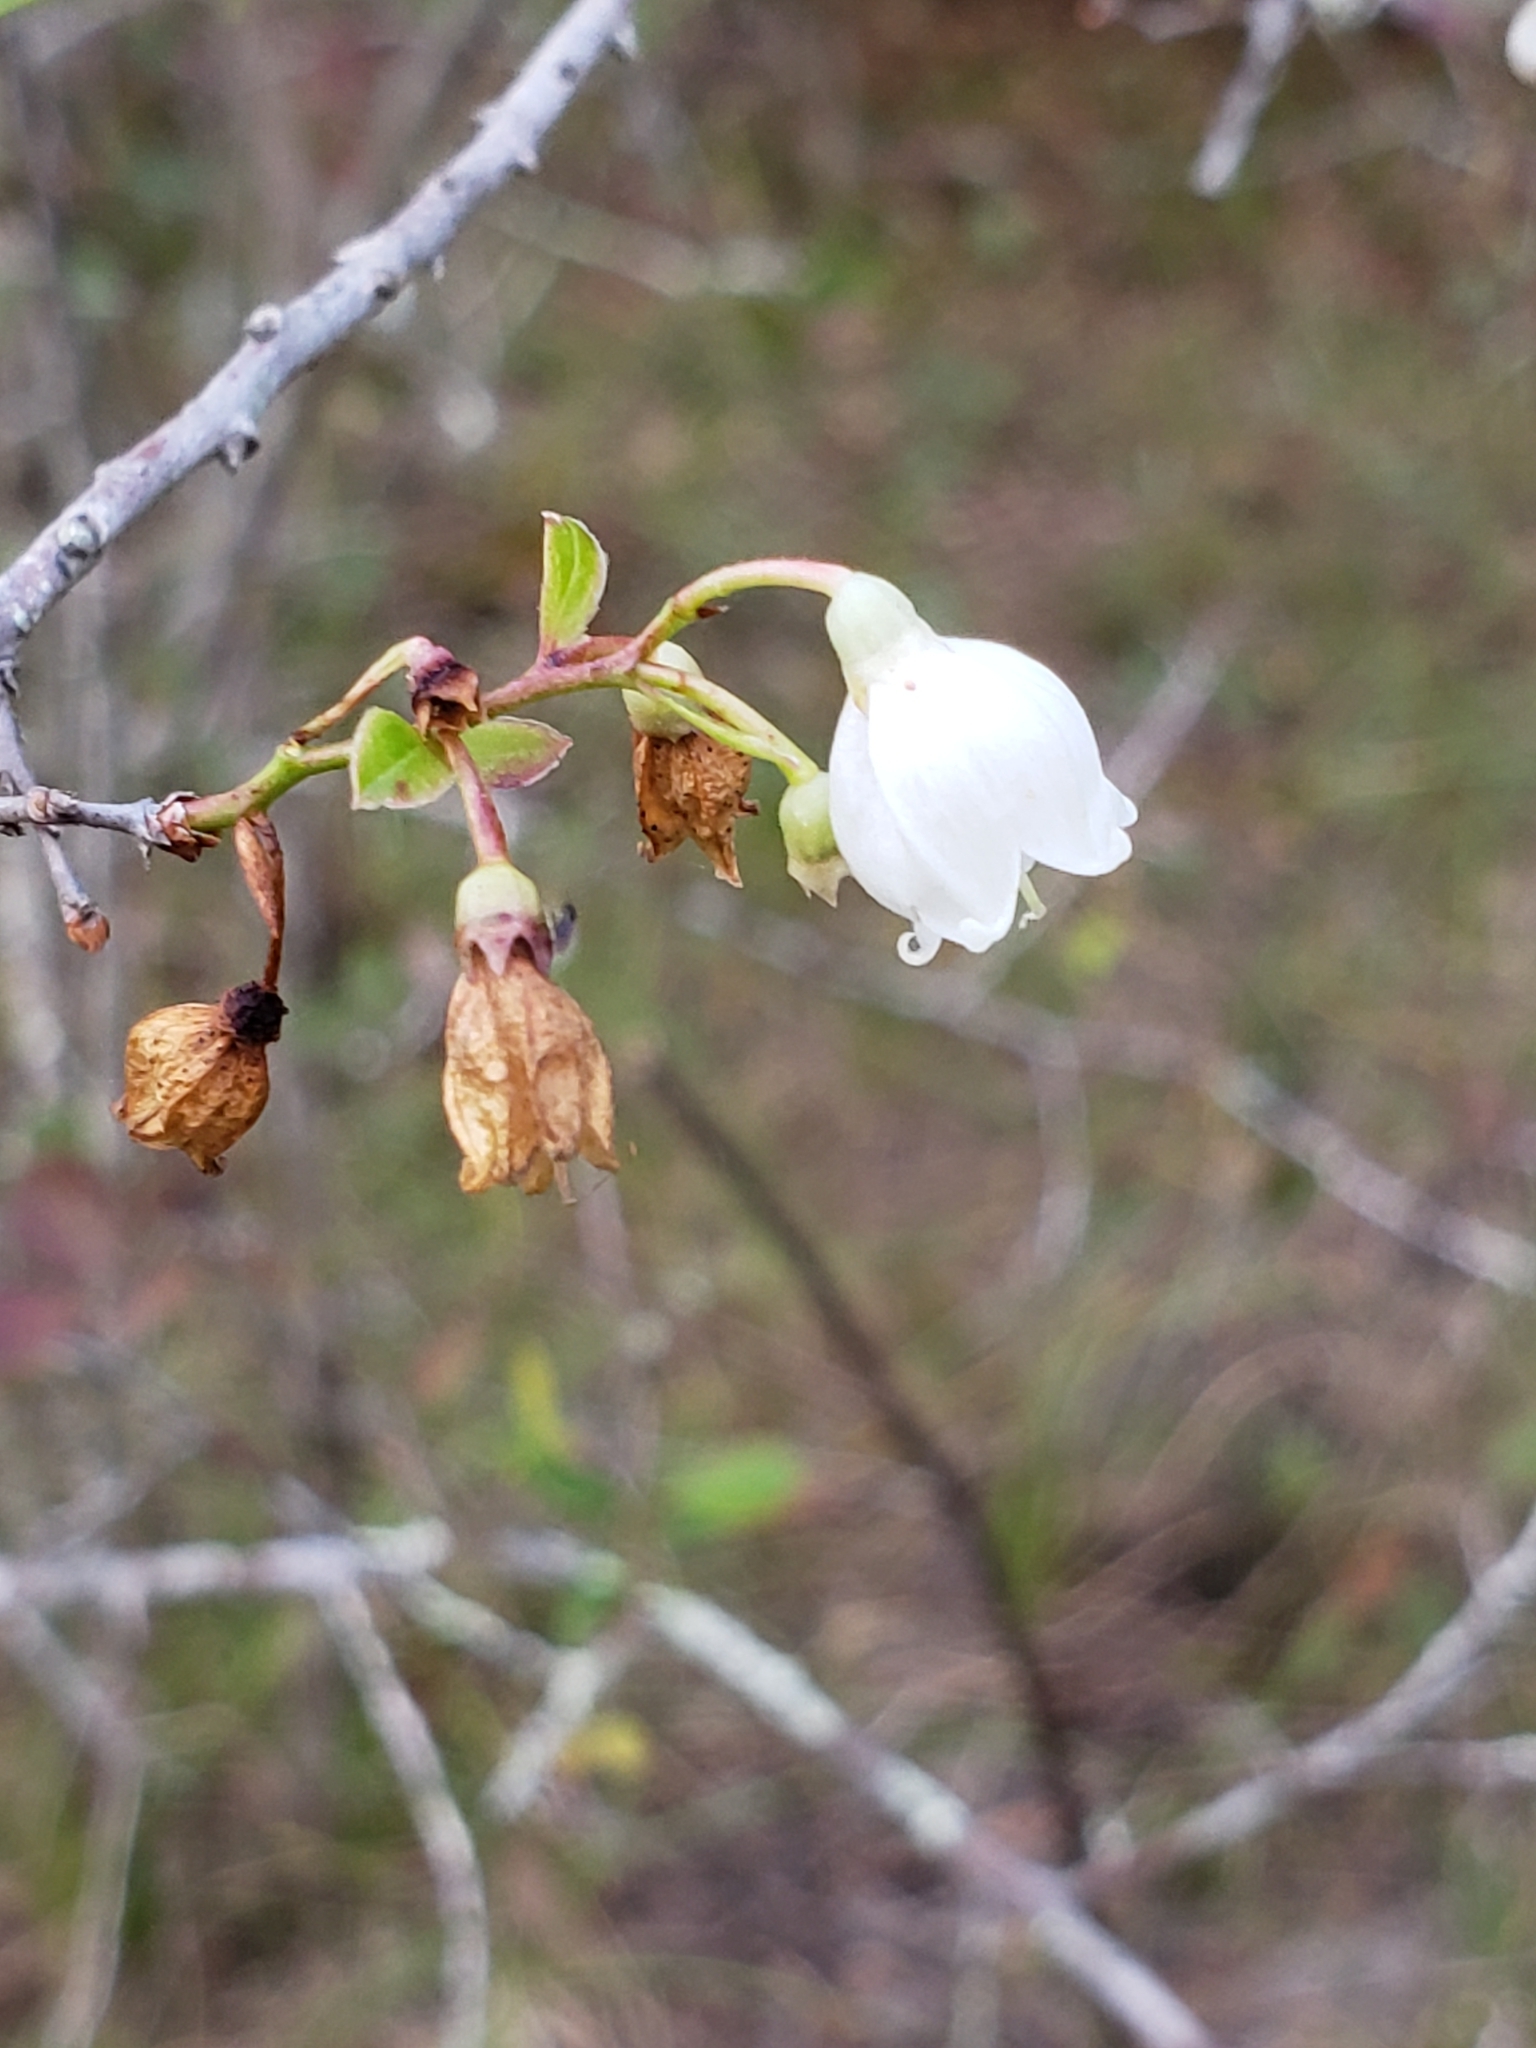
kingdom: Plantae
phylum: Tracheophyta
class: Magnoliopsida
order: Ericales
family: Ericaceae
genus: Vaccinium
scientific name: Vaccinium arboreum
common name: Farkleberry
